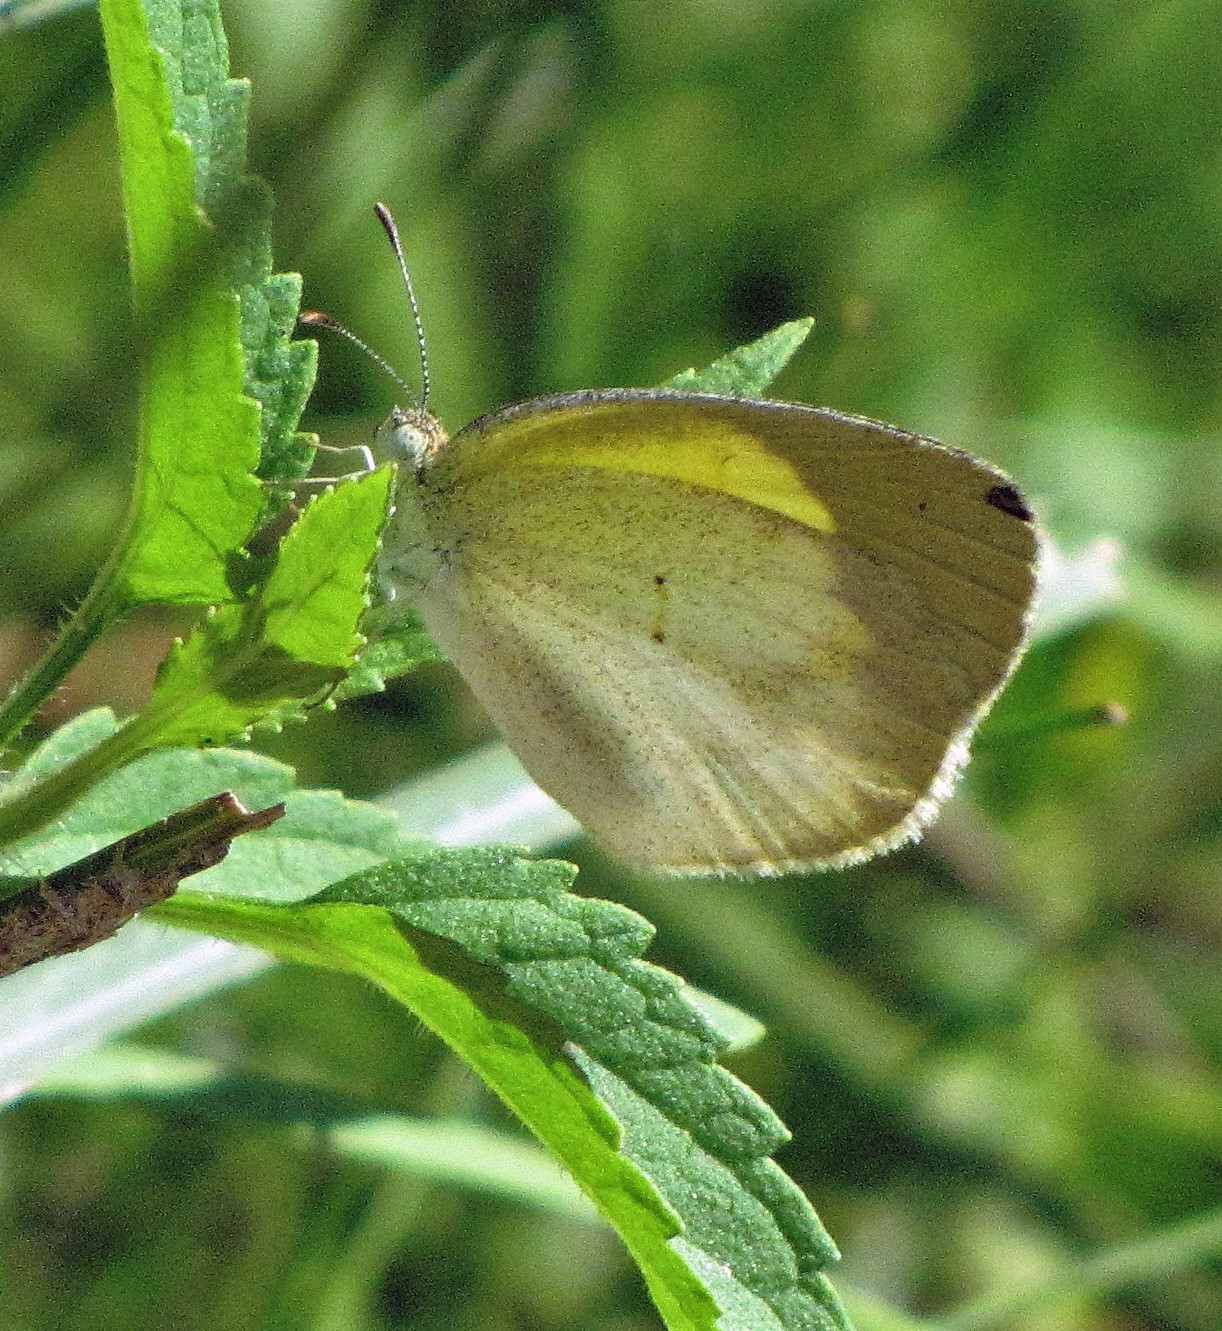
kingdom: Animalia
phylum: Arthropoda
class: Insecta
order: Lepidoptera
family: Pieridae
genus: Eurema
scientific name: Eurema elathea
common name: Banded yellow
